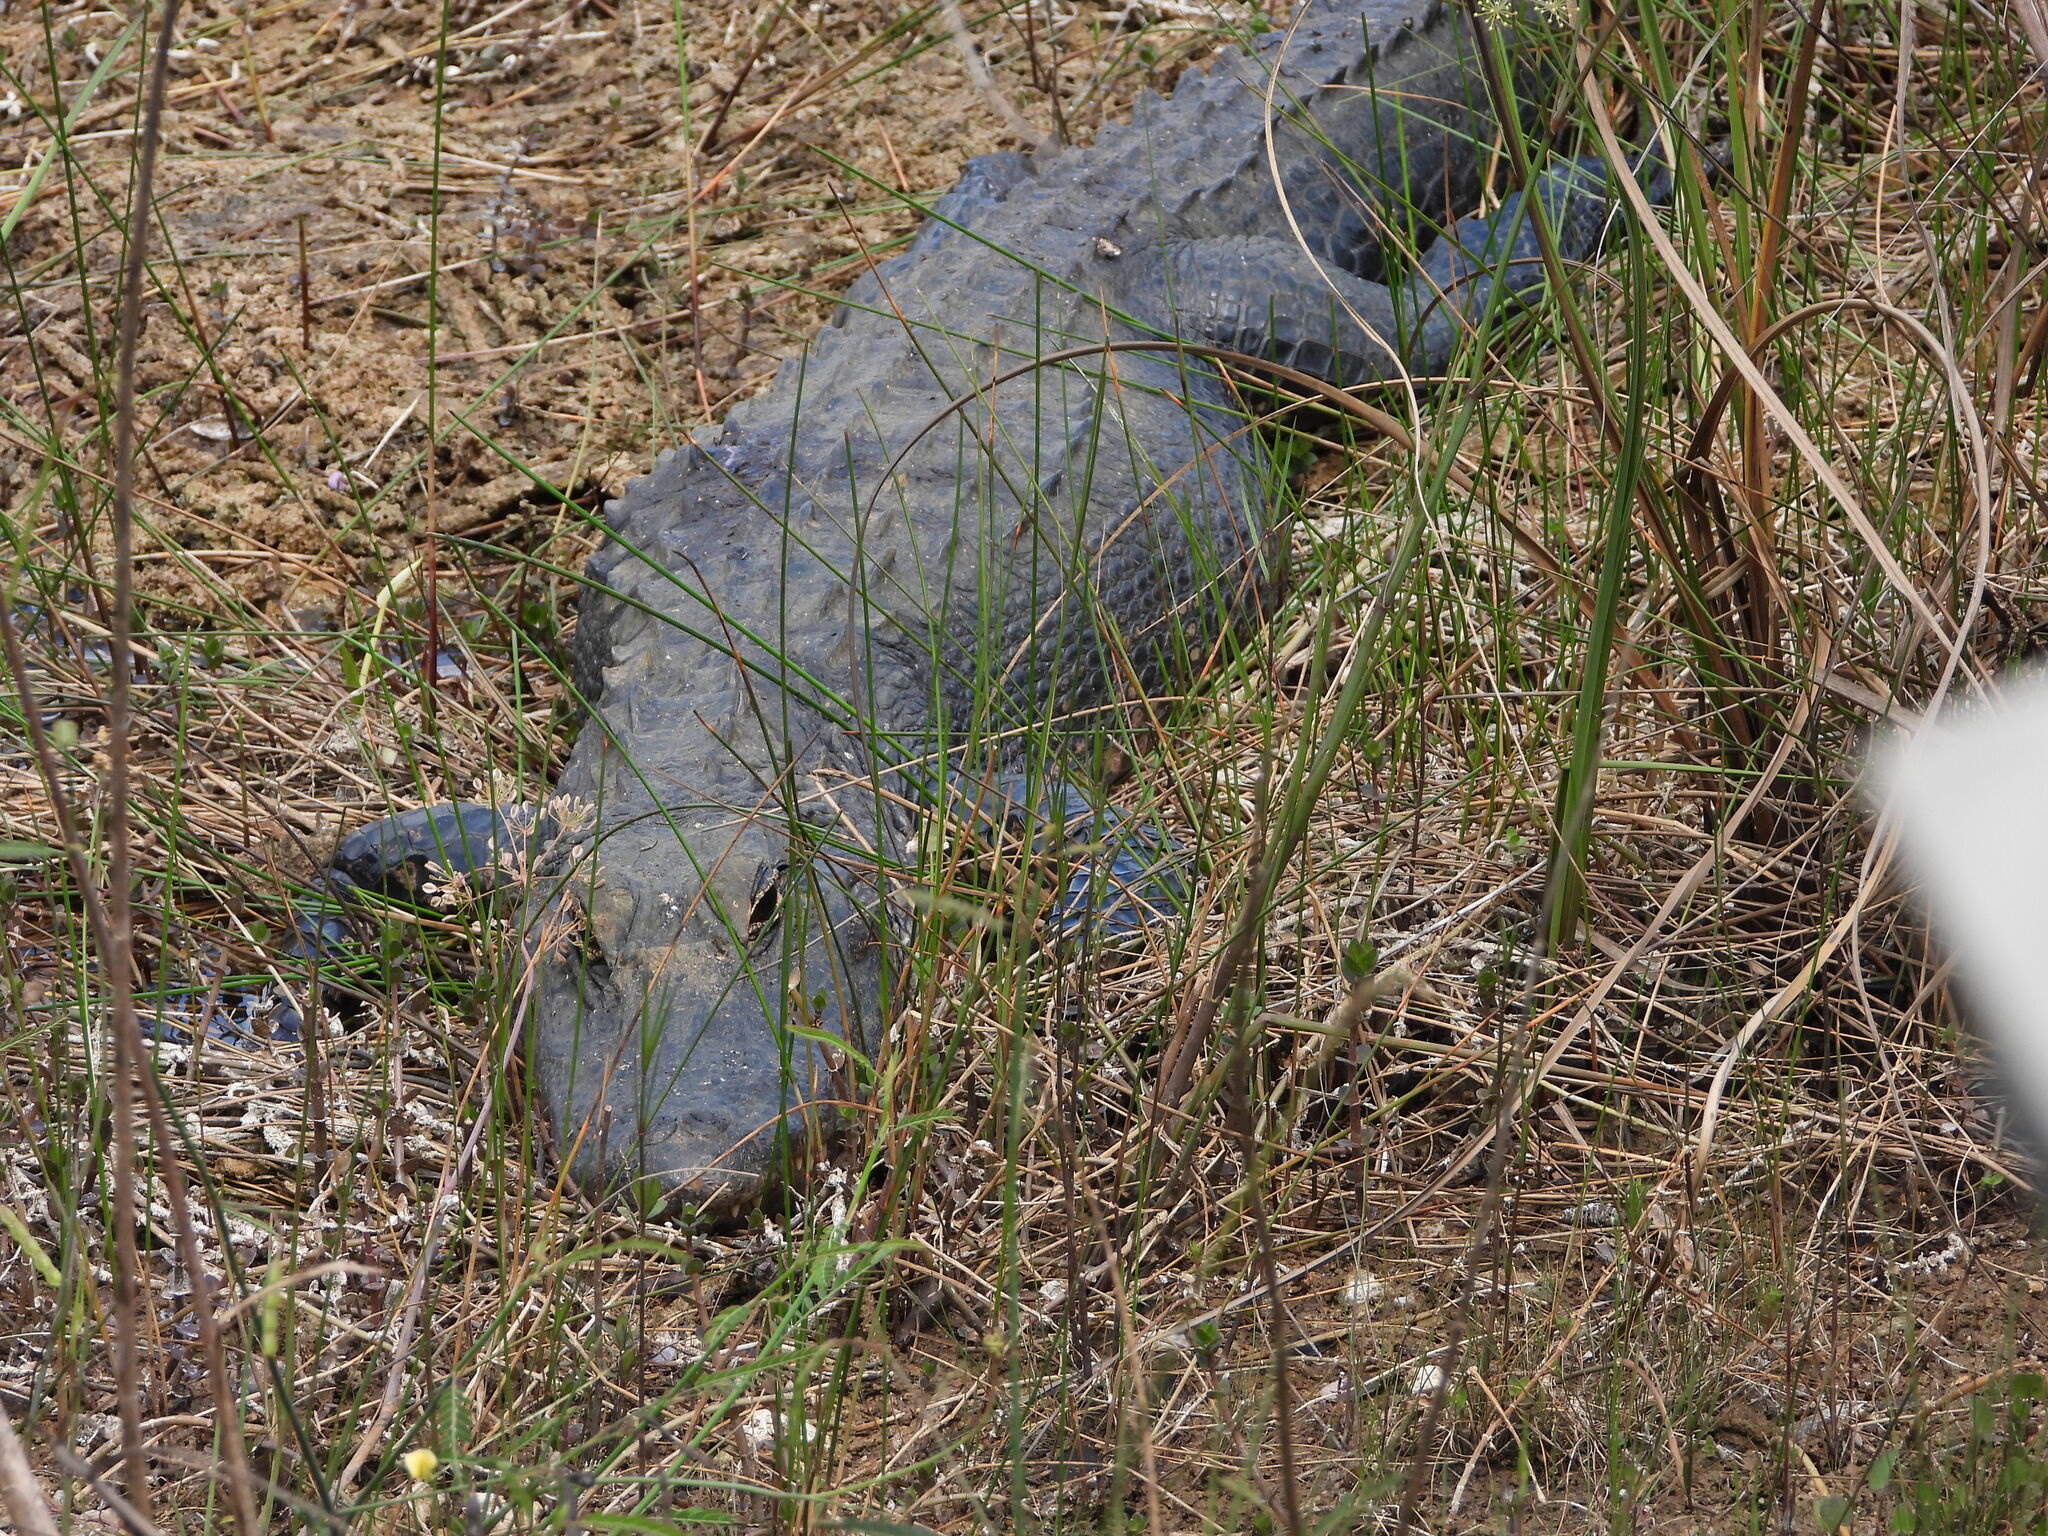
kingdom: Animalia
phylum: Chordata
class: Crocodylia
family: Alligatoridae
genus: Alligator
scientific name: Alligator mississippiensis
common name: American alligator
